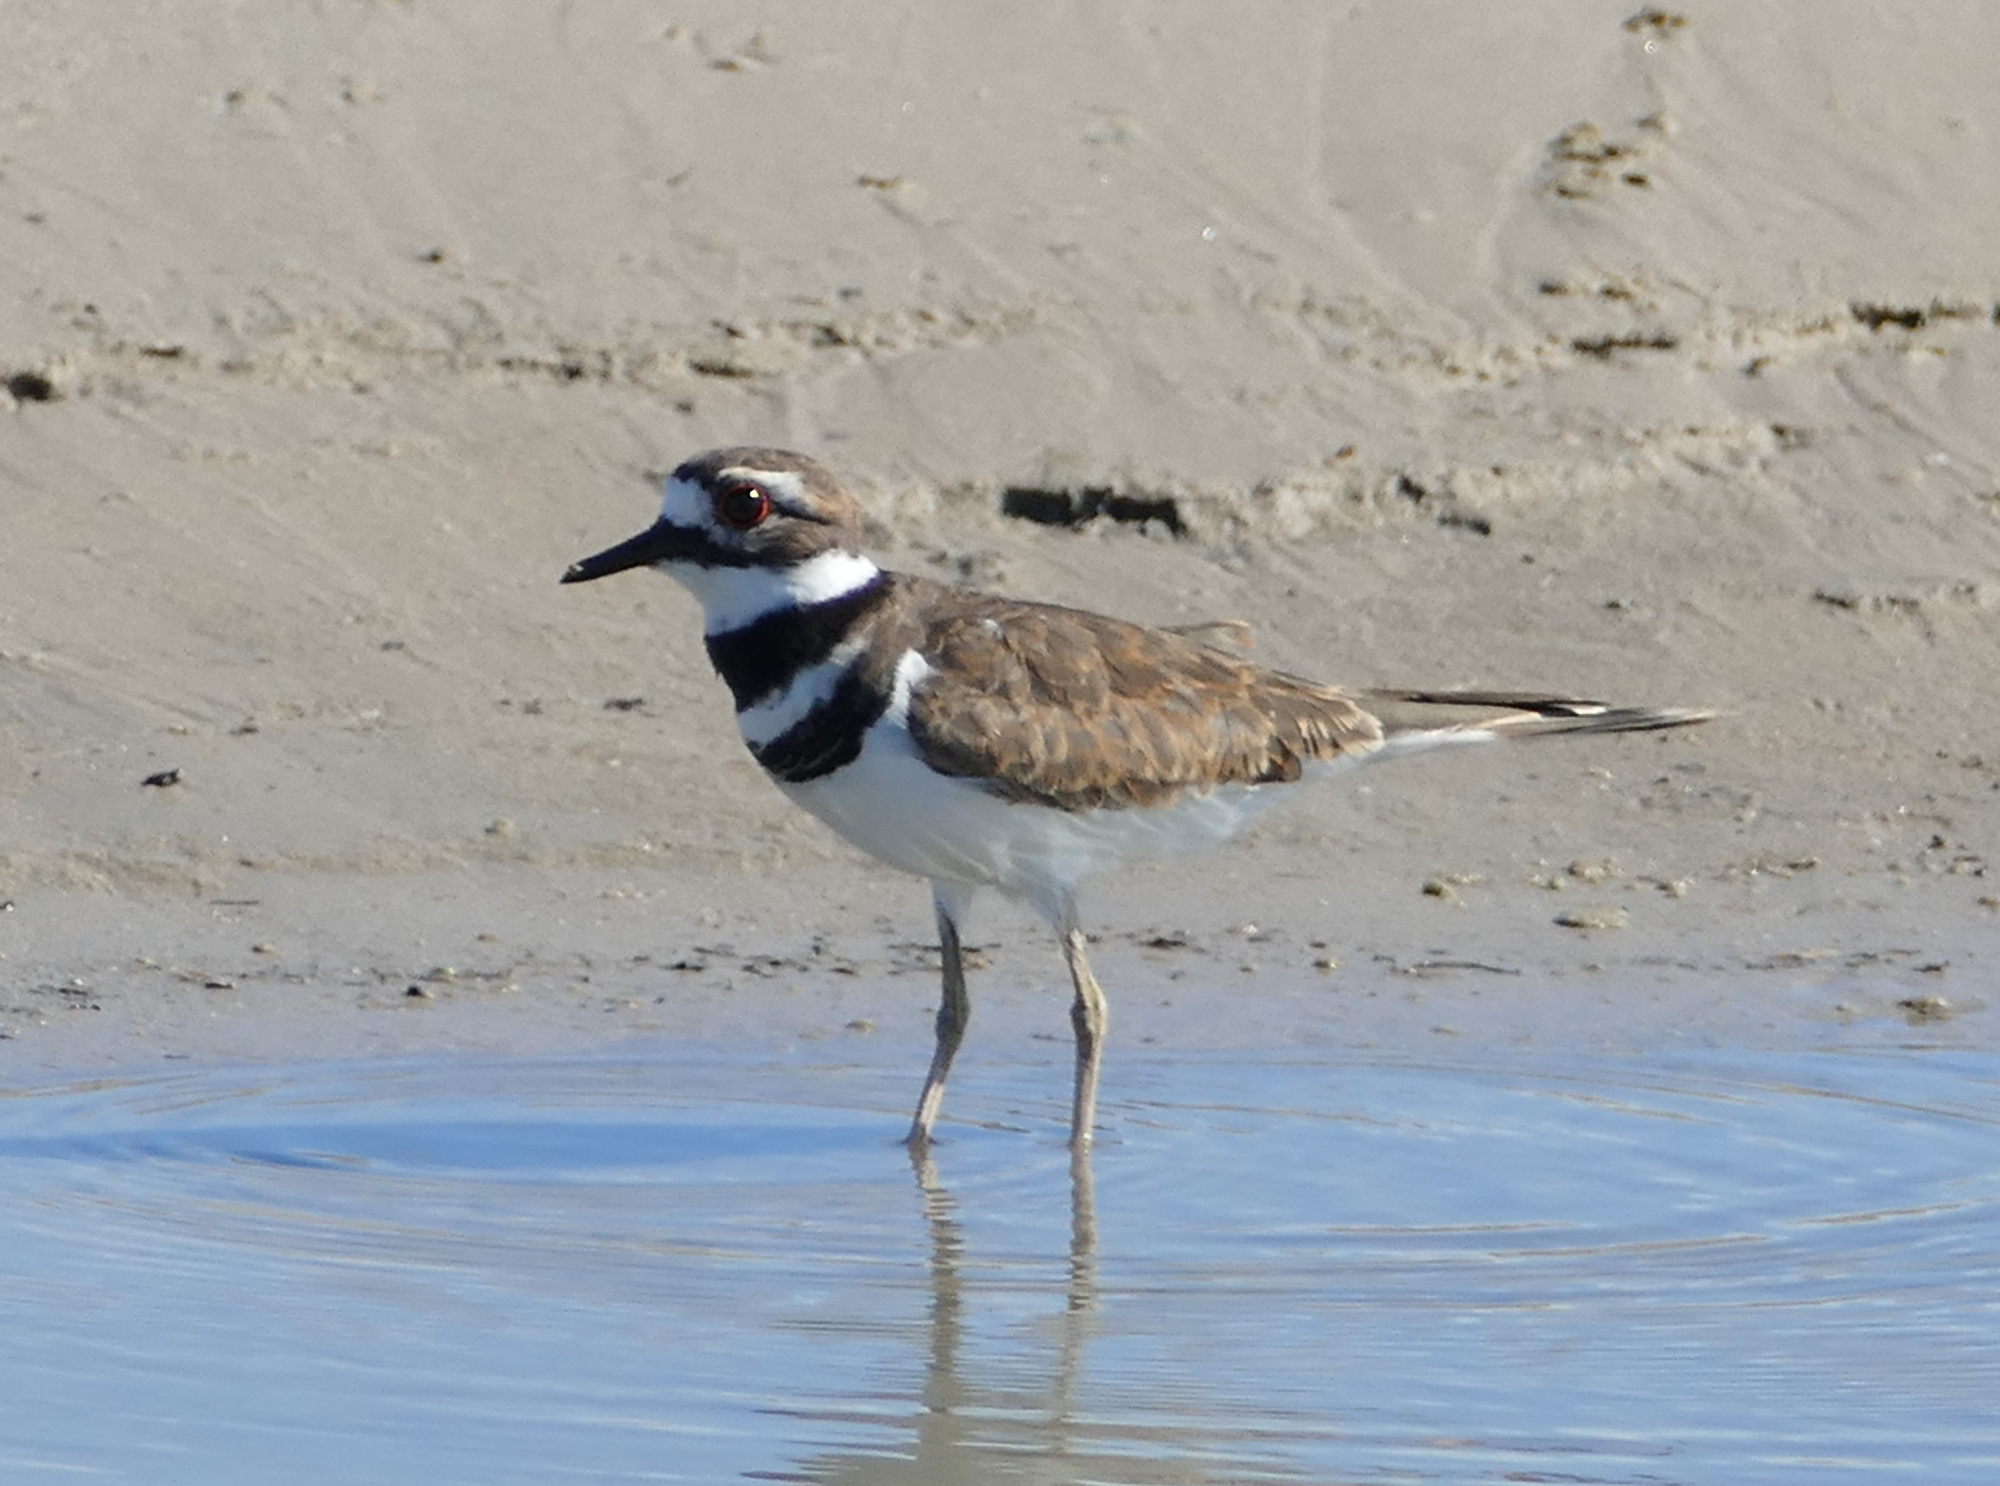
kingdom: Animalia
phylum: Chordata
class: Aves
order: Charadriiformes
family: Charadriidae
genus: Charadrius
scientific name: Charadrius vociferus
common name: Killdeer
